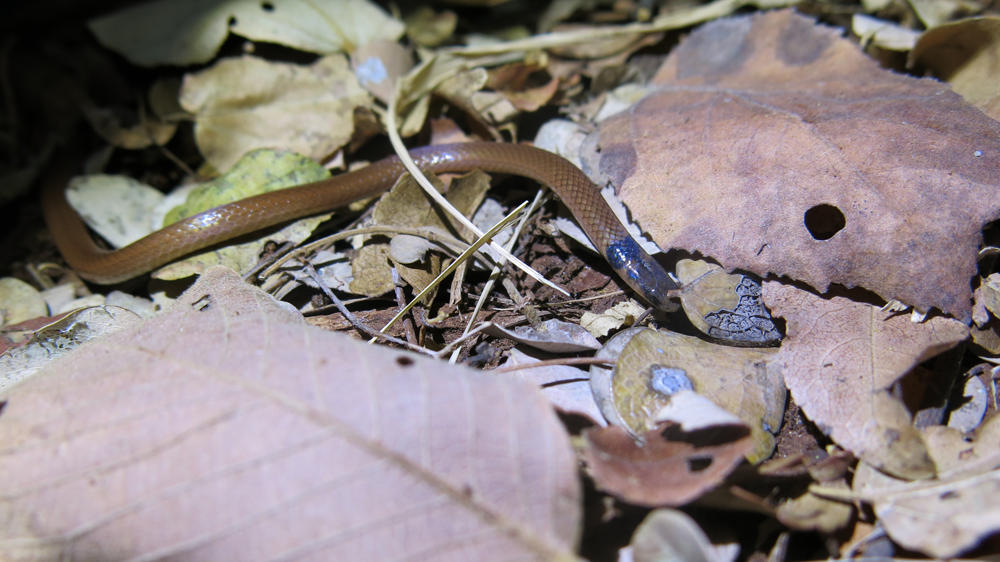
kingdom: Animalia
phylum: Chordata
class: Squamata
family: Atractaspididae
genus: Aparallactus
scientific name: Aparallactus capensis
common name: Cape centipede eater
